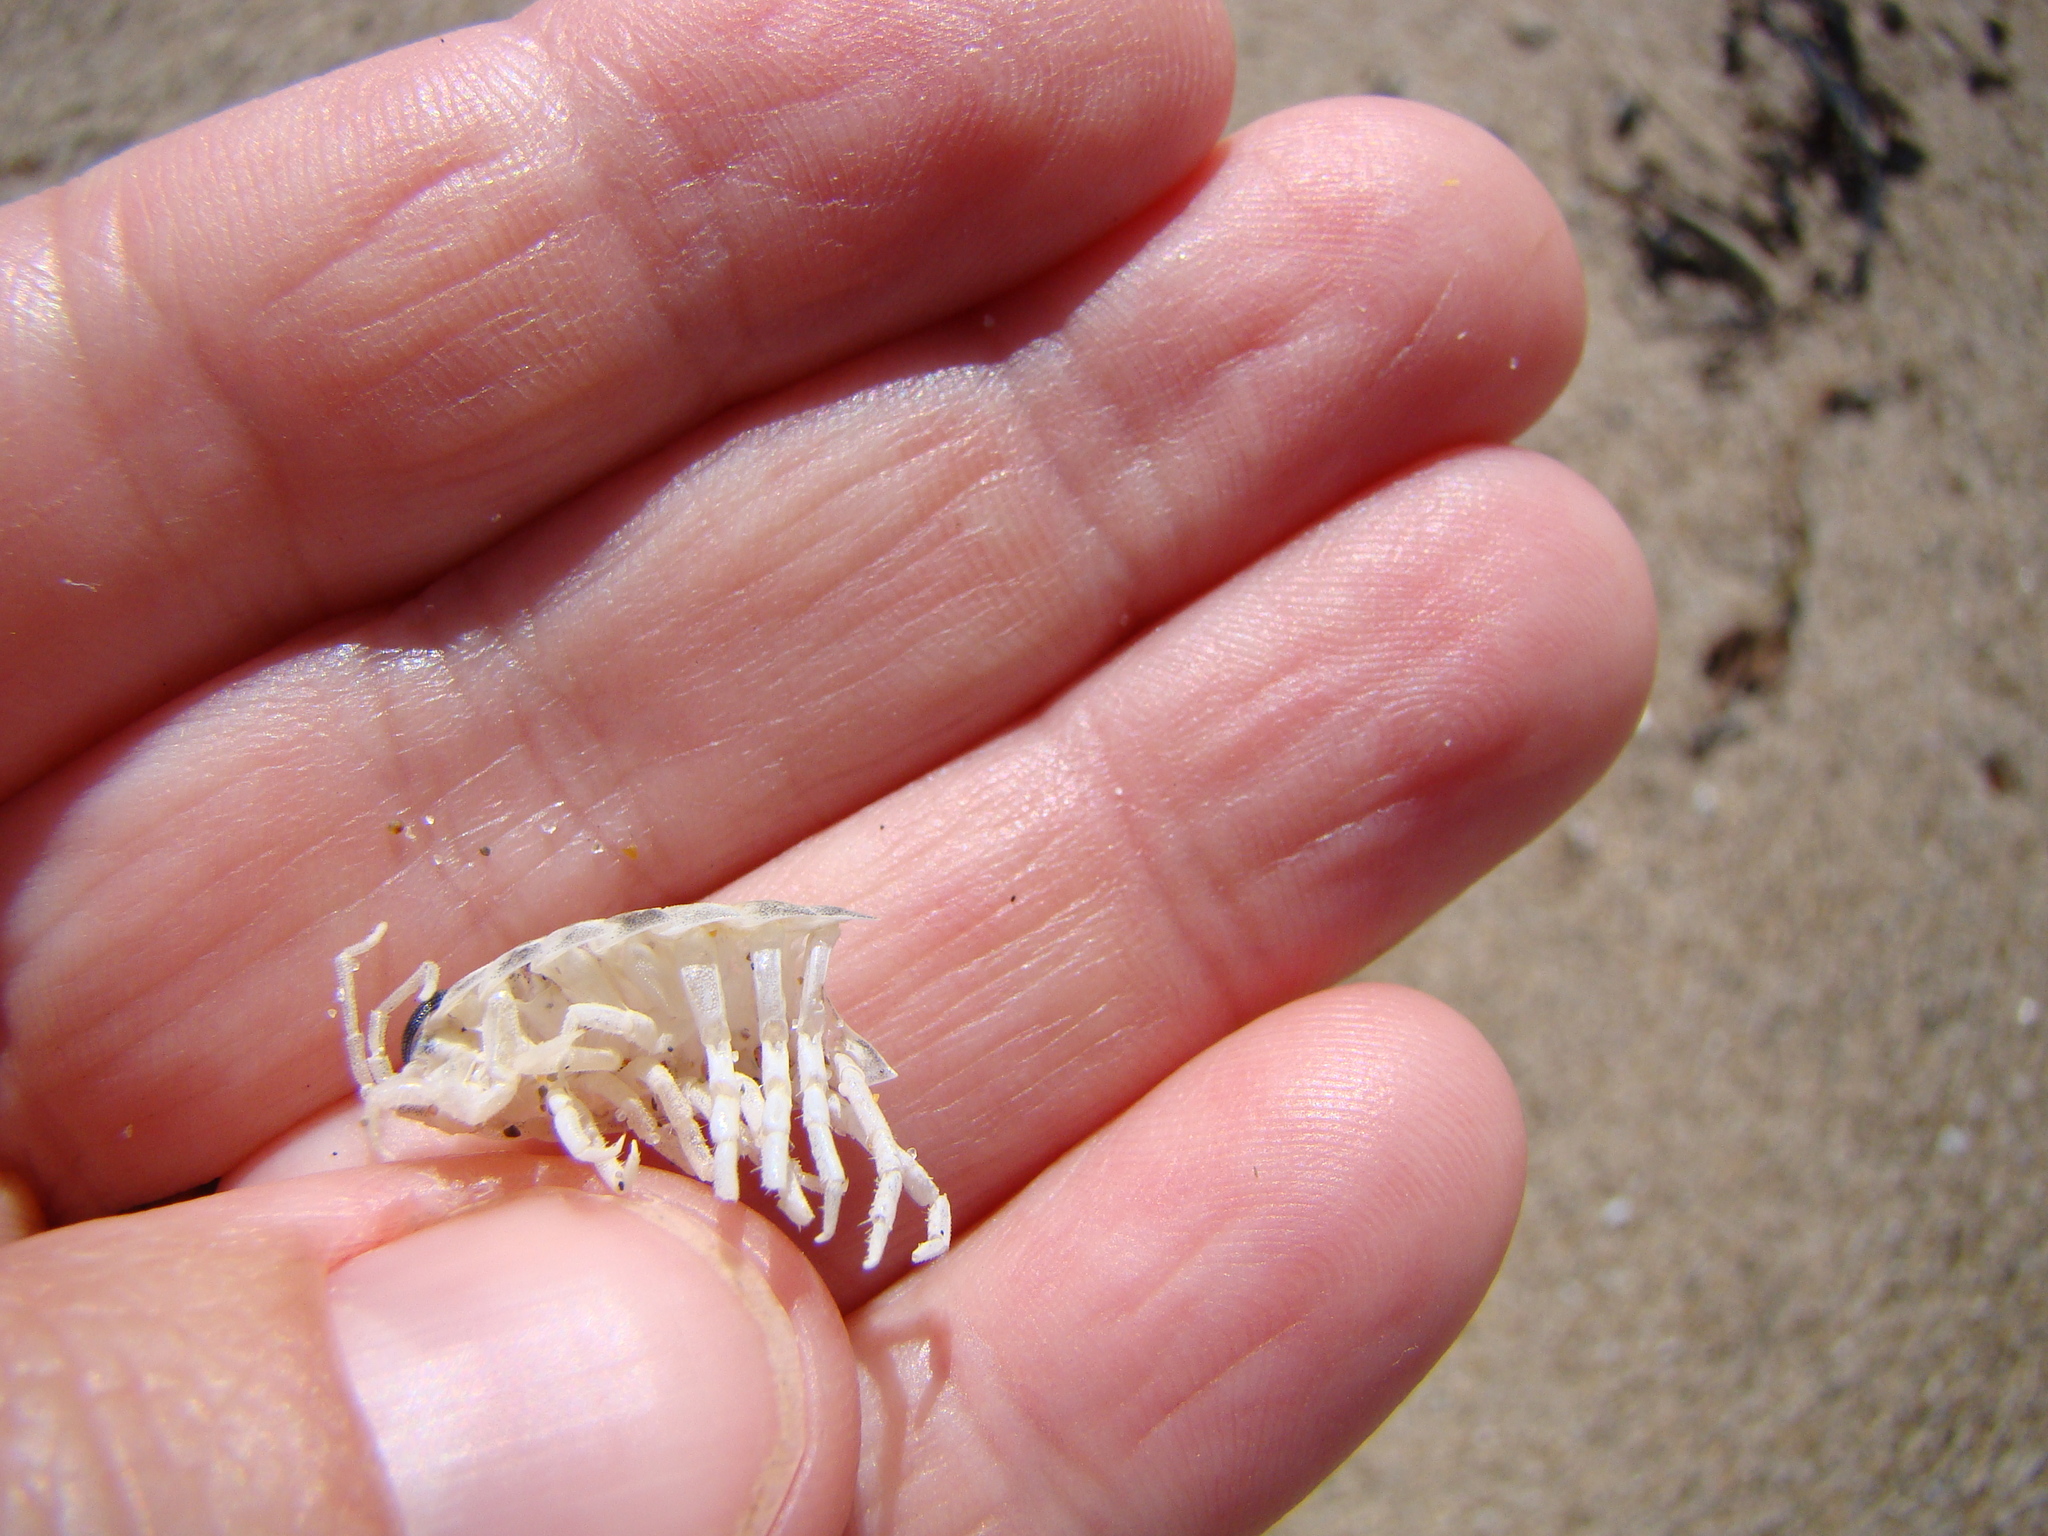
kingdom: Animalia
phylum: Arthropoda
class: Malacostraca
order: Isopoda
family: Scyphacidae
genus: Scyphax
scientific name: Scyphax ornatus
